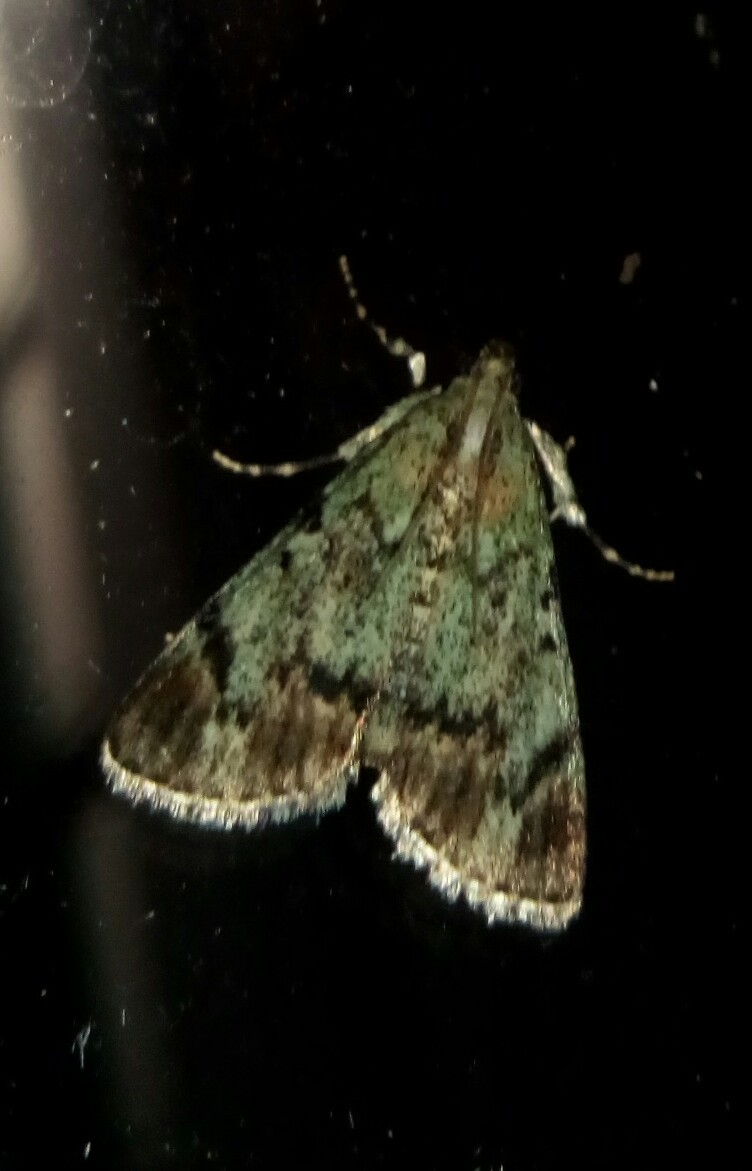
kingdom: Animalia
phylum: Arthropoda
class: Insecta
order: Lepidoptera
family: Pyralidae
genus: Epipaschia
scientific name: Epipaschia superatalis
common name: Dimorphic macalla moth
